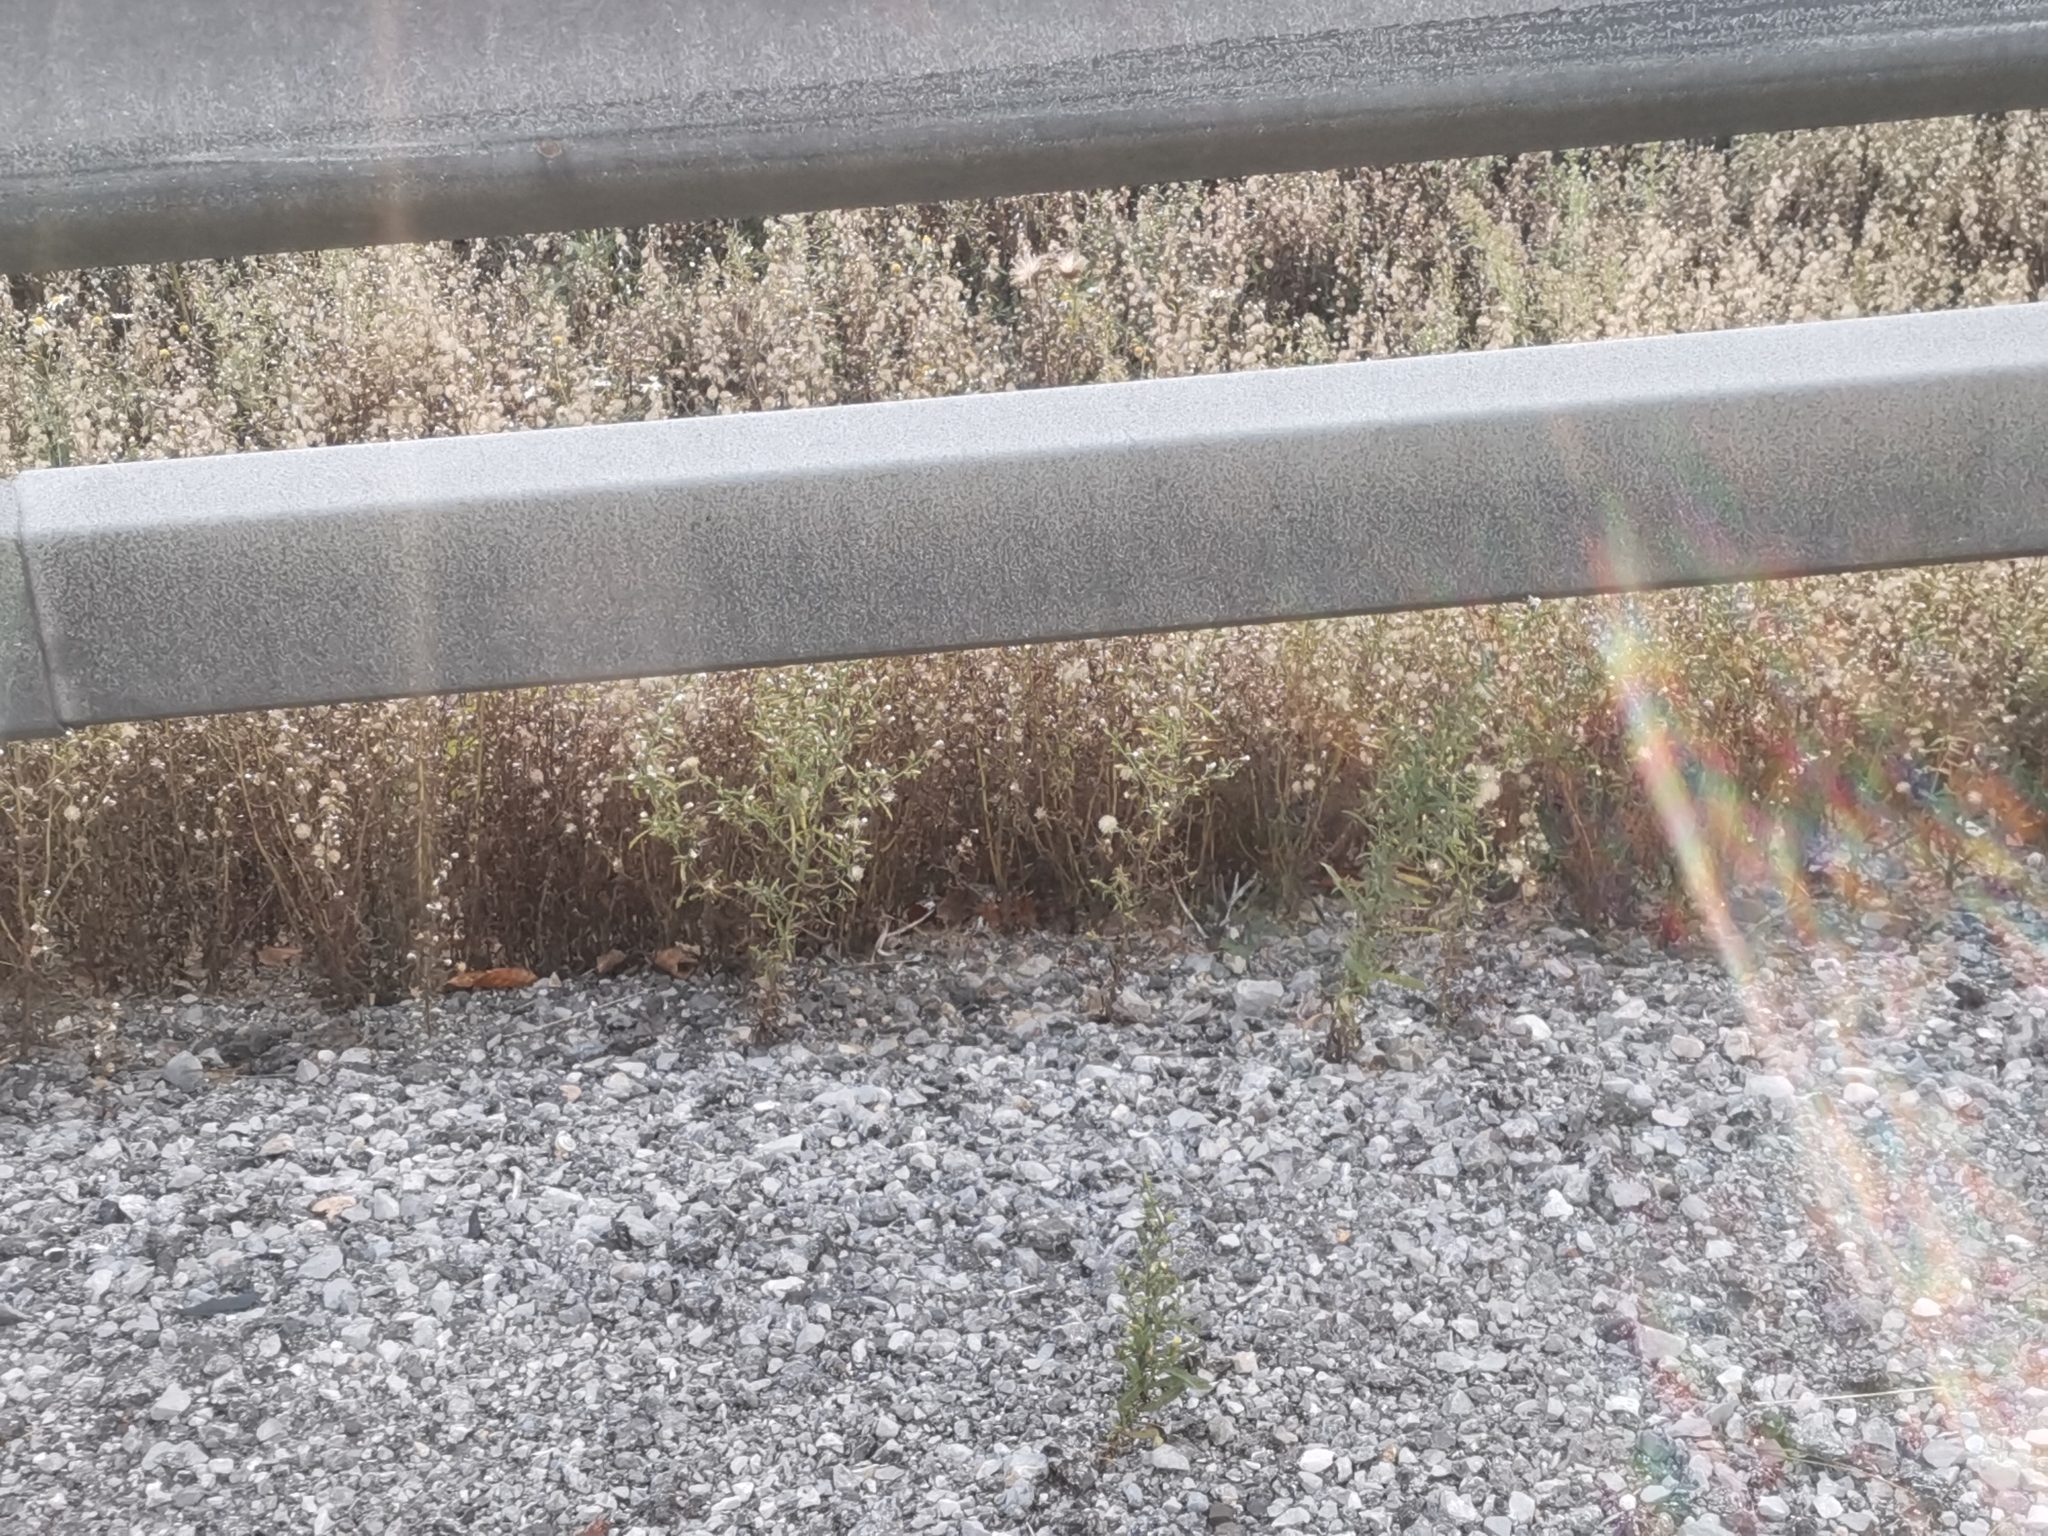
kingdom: Plantae
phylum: Tracheophyta
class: Magnoliopsida
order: Asterales
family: Asteraceae
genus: Dittrichia
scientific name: Dittrichia graveolens
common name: Stinking fleabane
